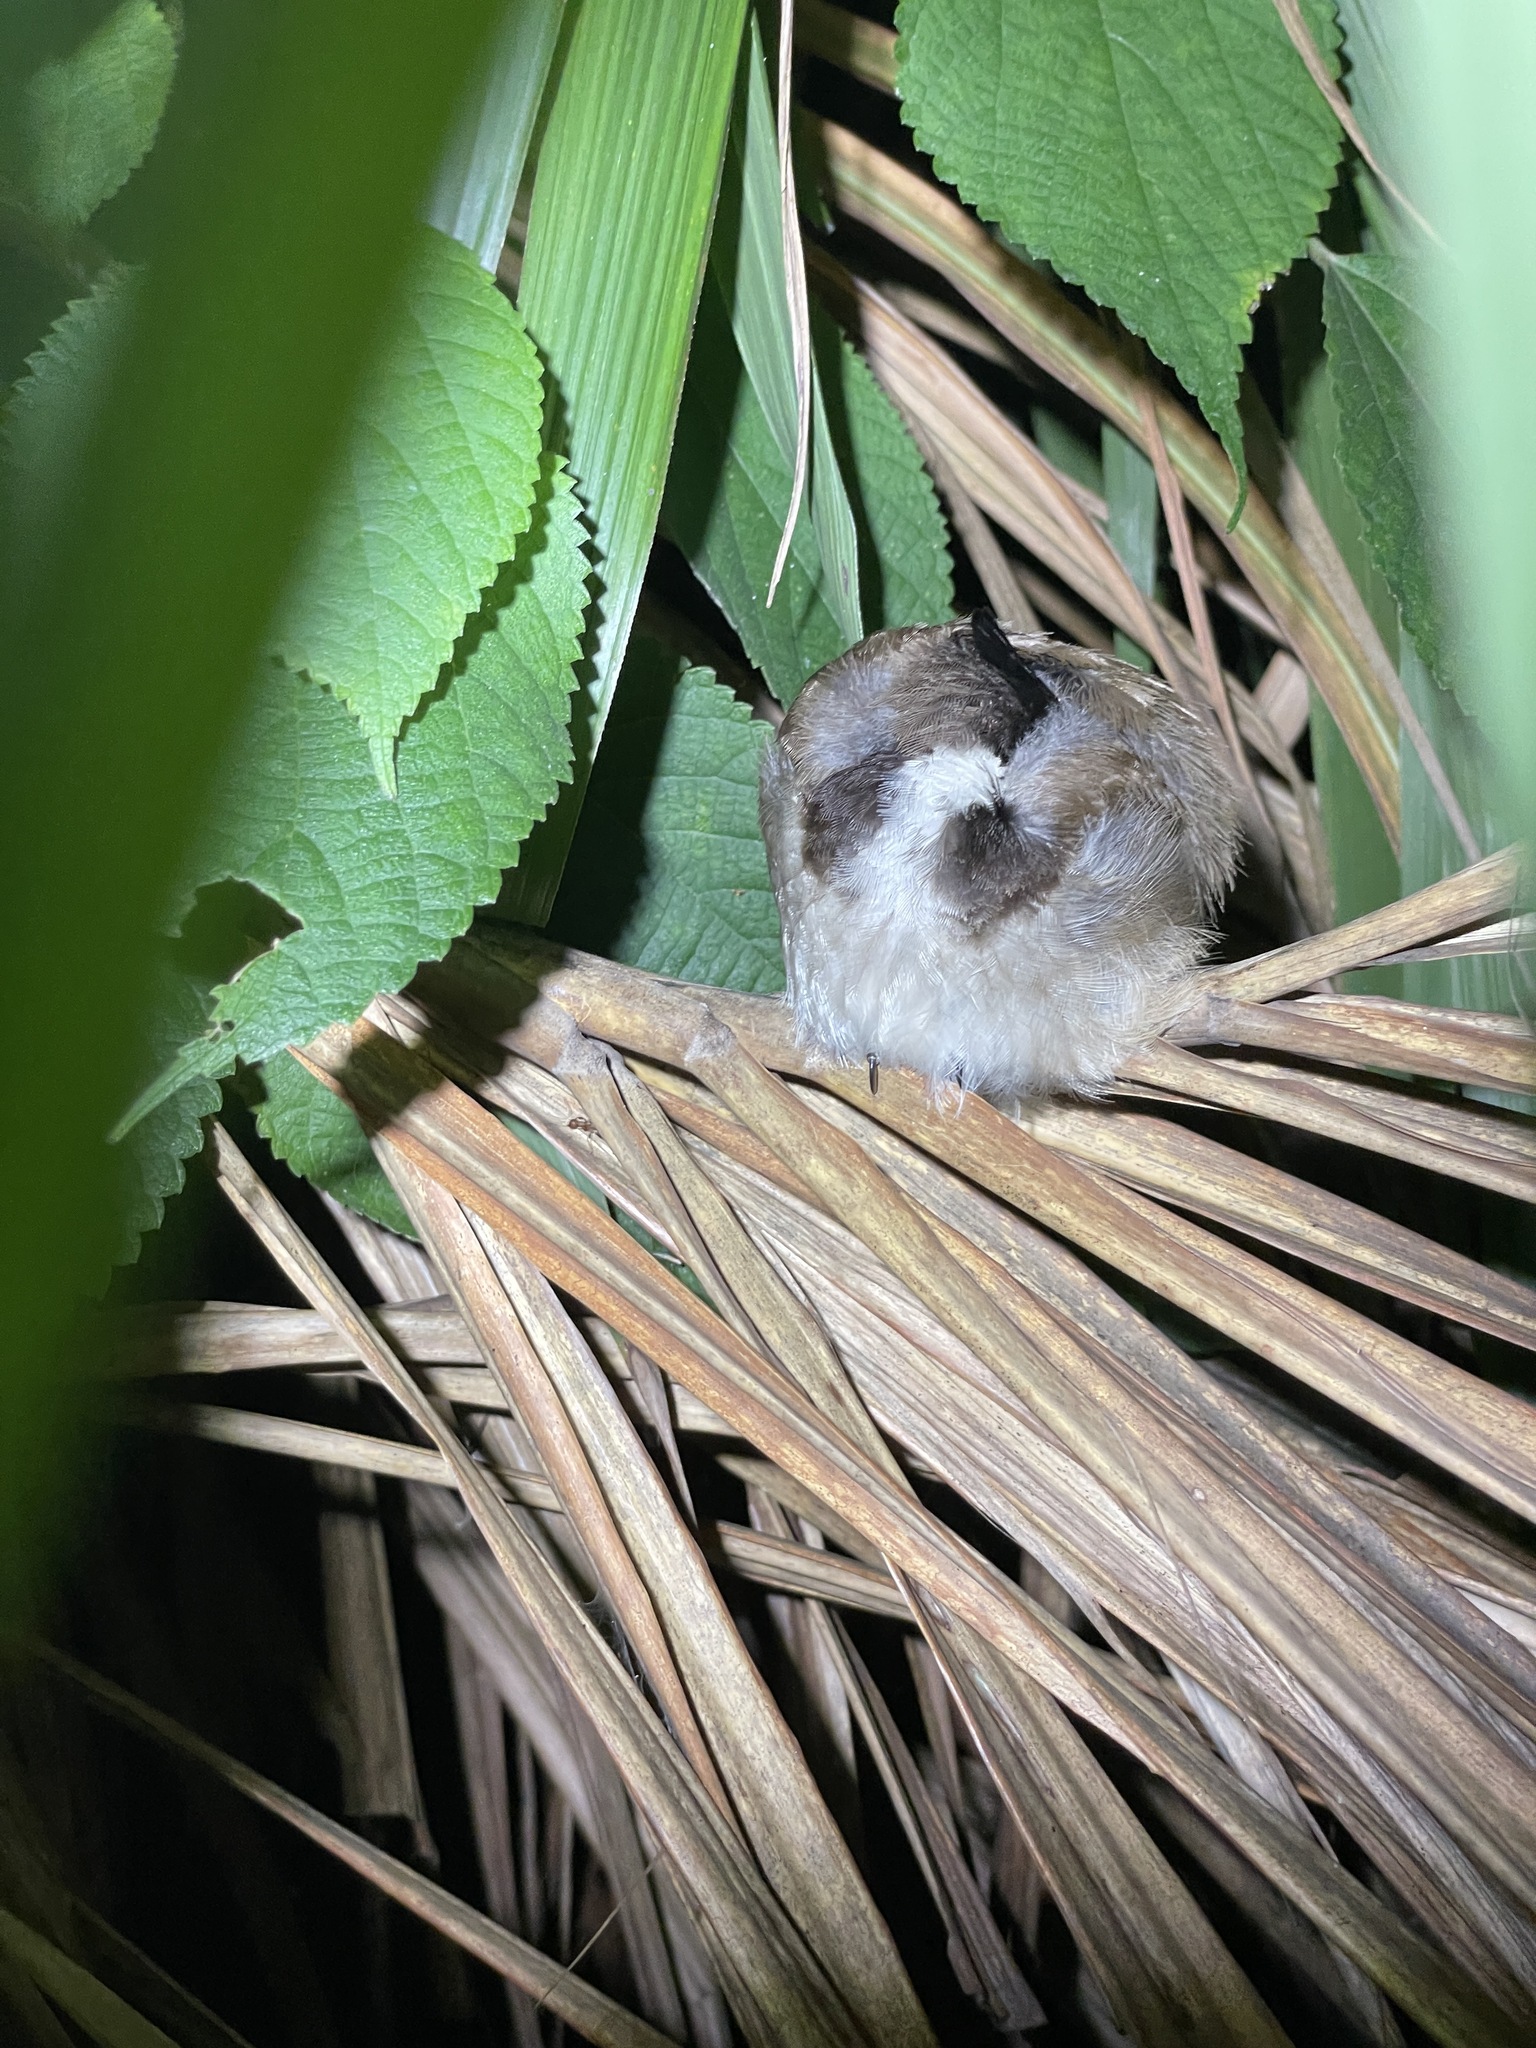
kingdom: Animalia
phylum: Chordata
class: Aves
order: Passeriformes
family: Pycnonotidae
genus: Pycnonotus
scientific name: Pycnonotus jocosus
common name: Red-whiskered bulbul
